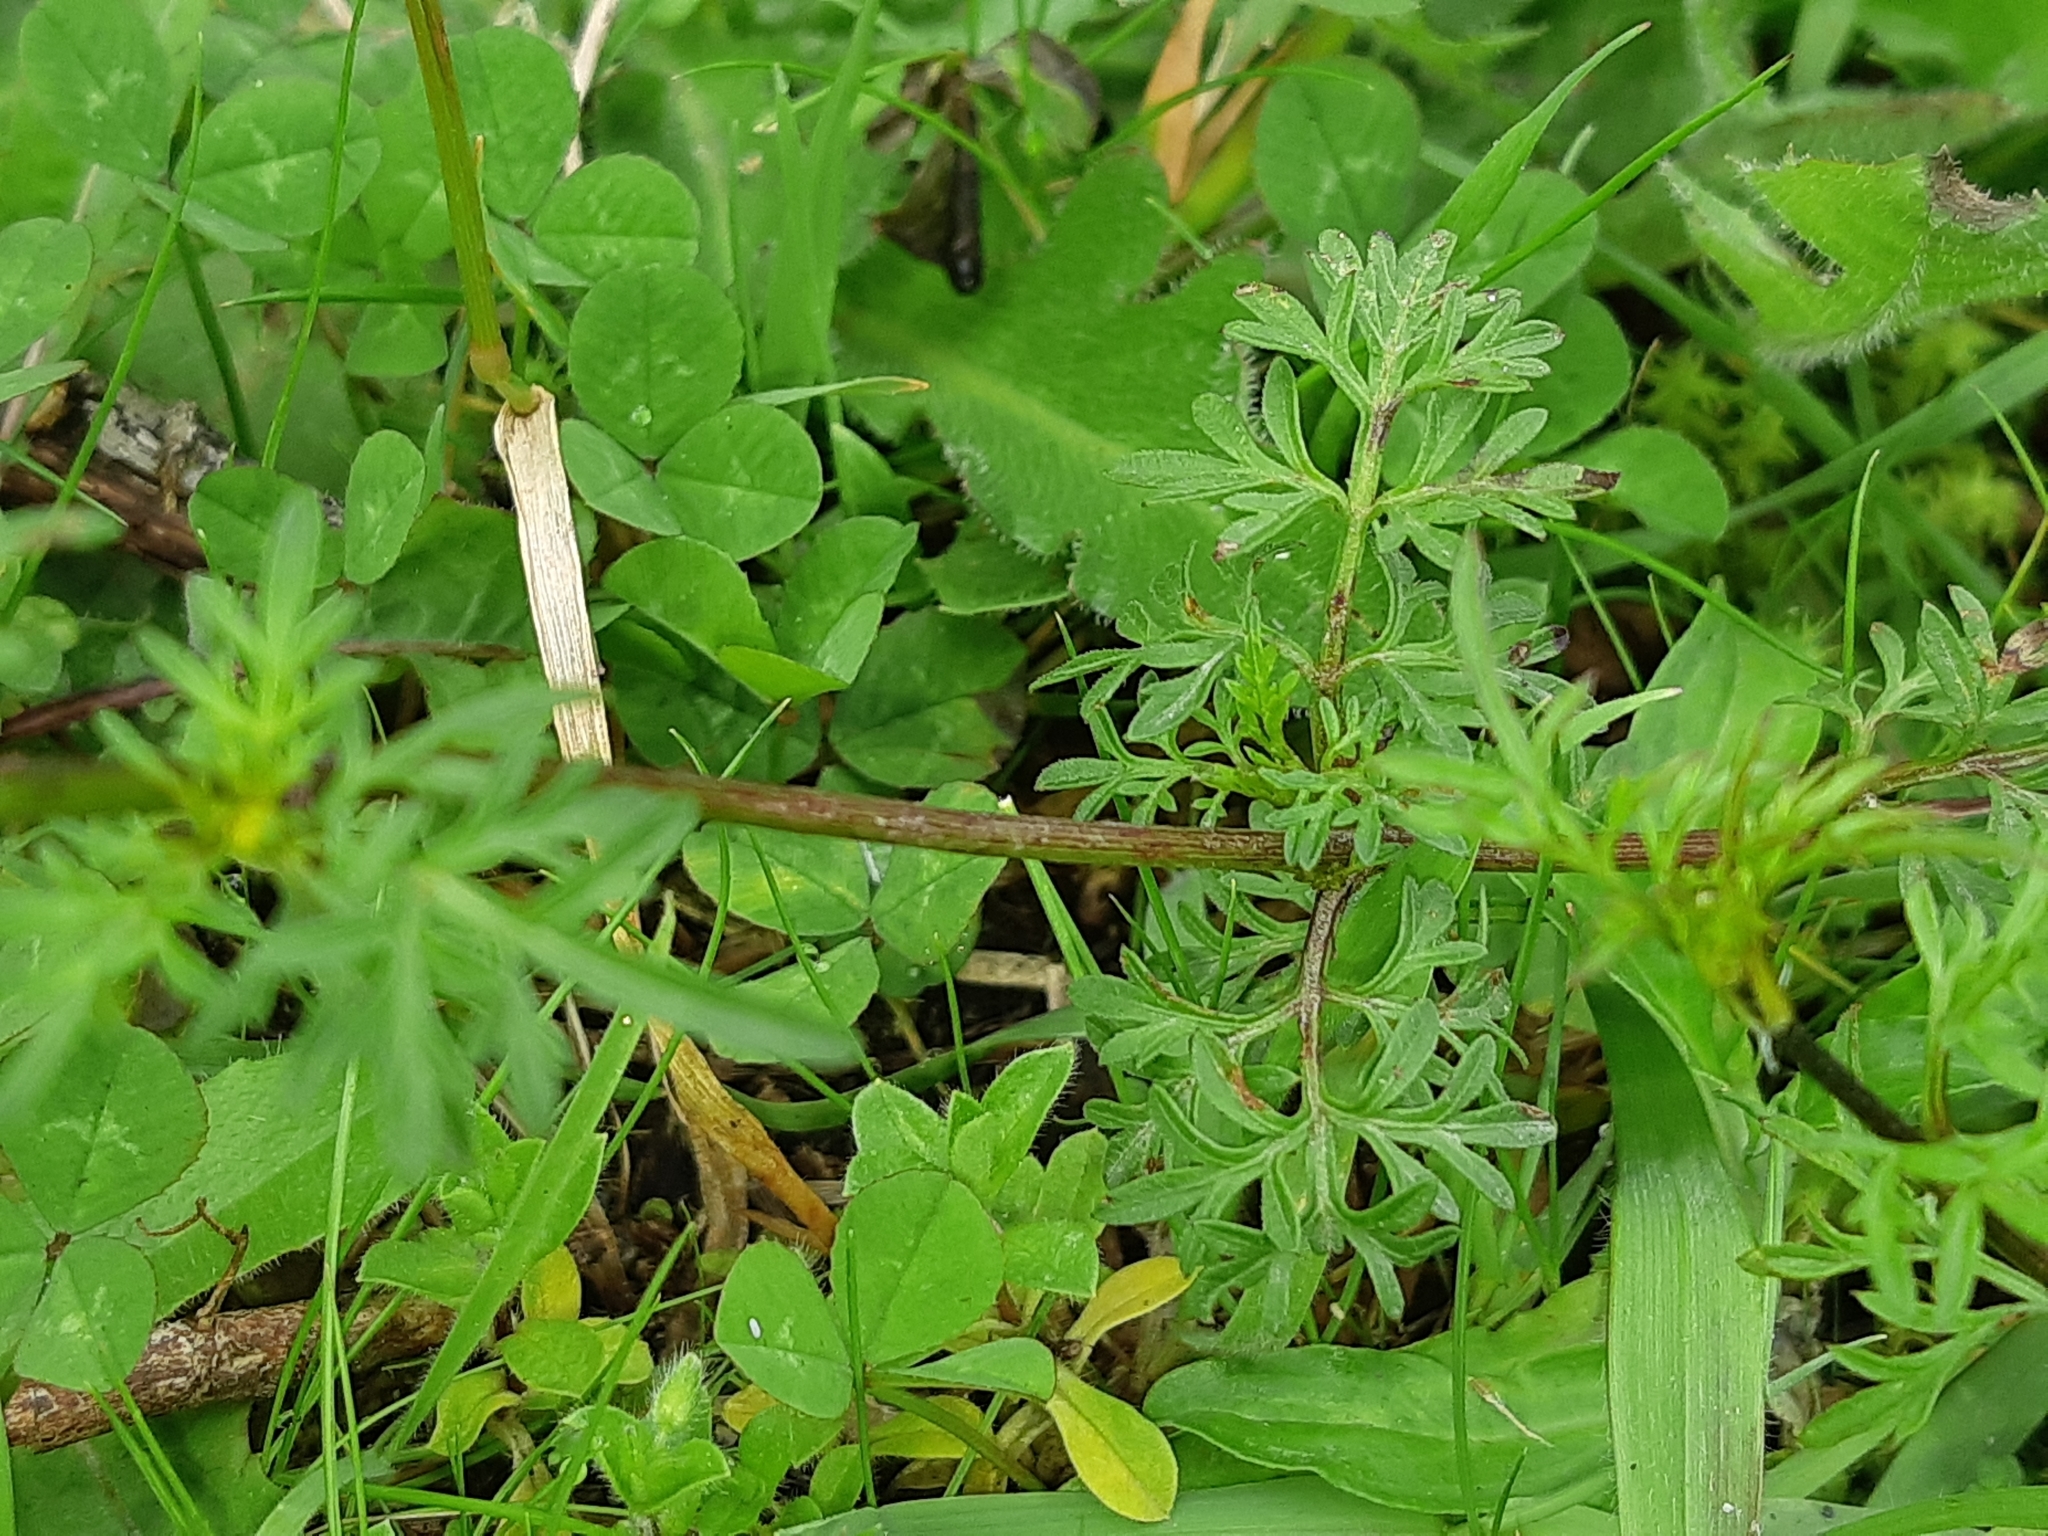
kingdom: Plantae
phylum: Tracheophyta
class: Magnoliopsida
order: Asterales
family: Asteraceae
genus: Bidens
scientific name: Bidens triplinervia
